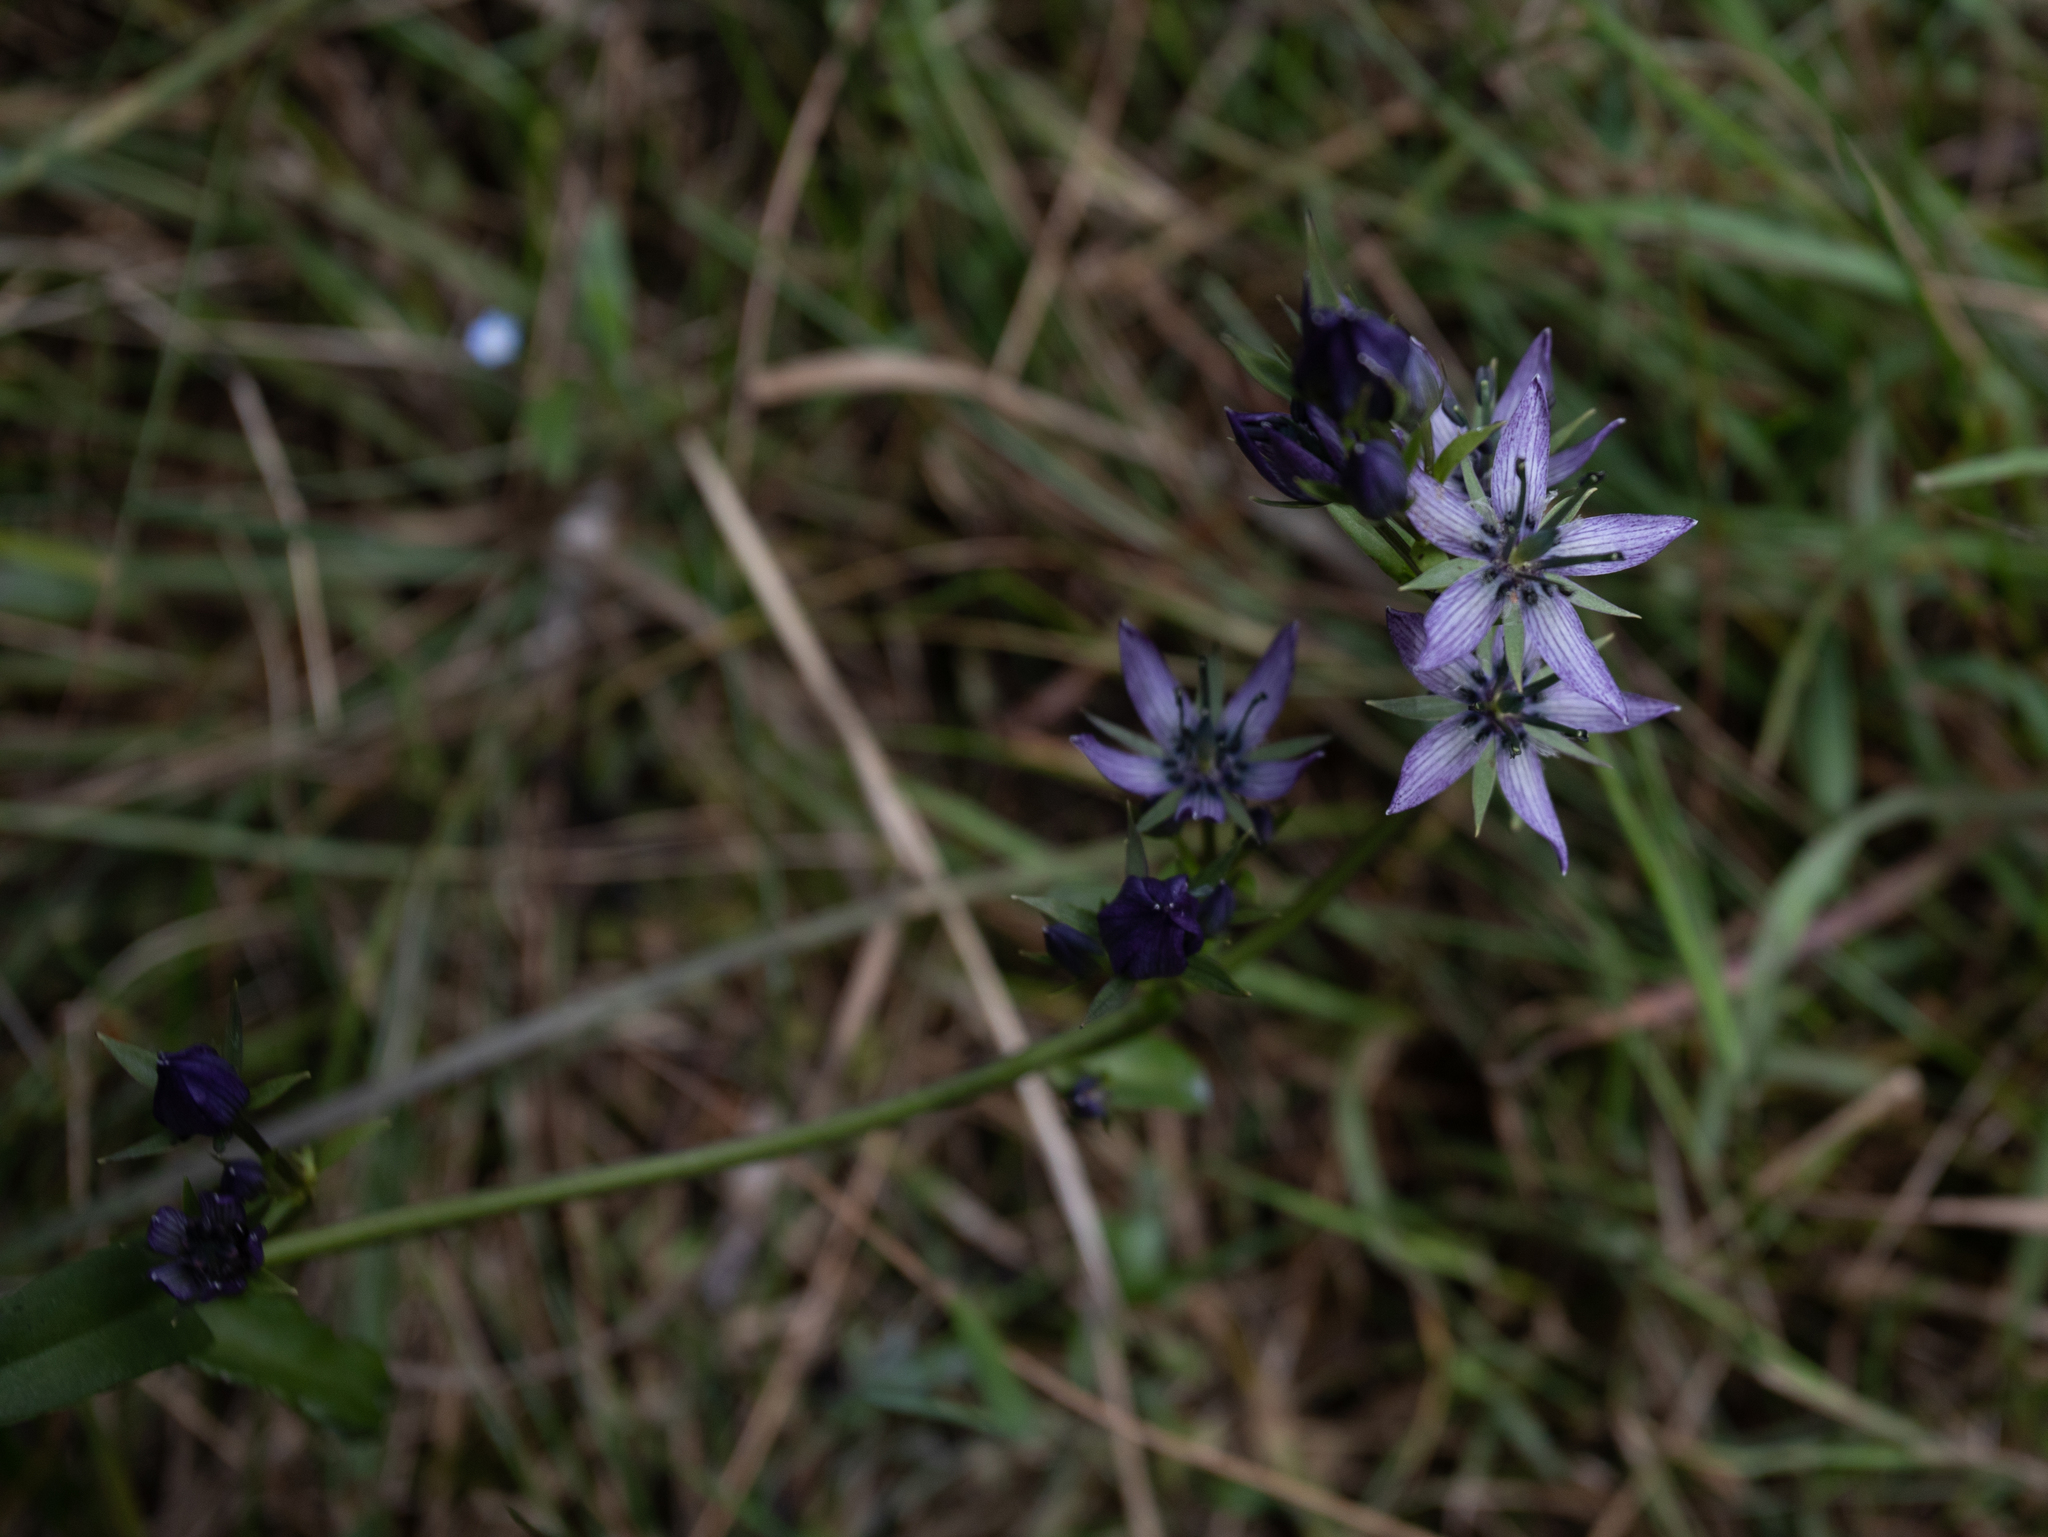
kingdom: Plantae
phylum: Tracheophyta
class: Magnoliopsida
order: Gentianales
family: Gentianaceae
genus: Swertia
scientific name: Swertia obtusa
